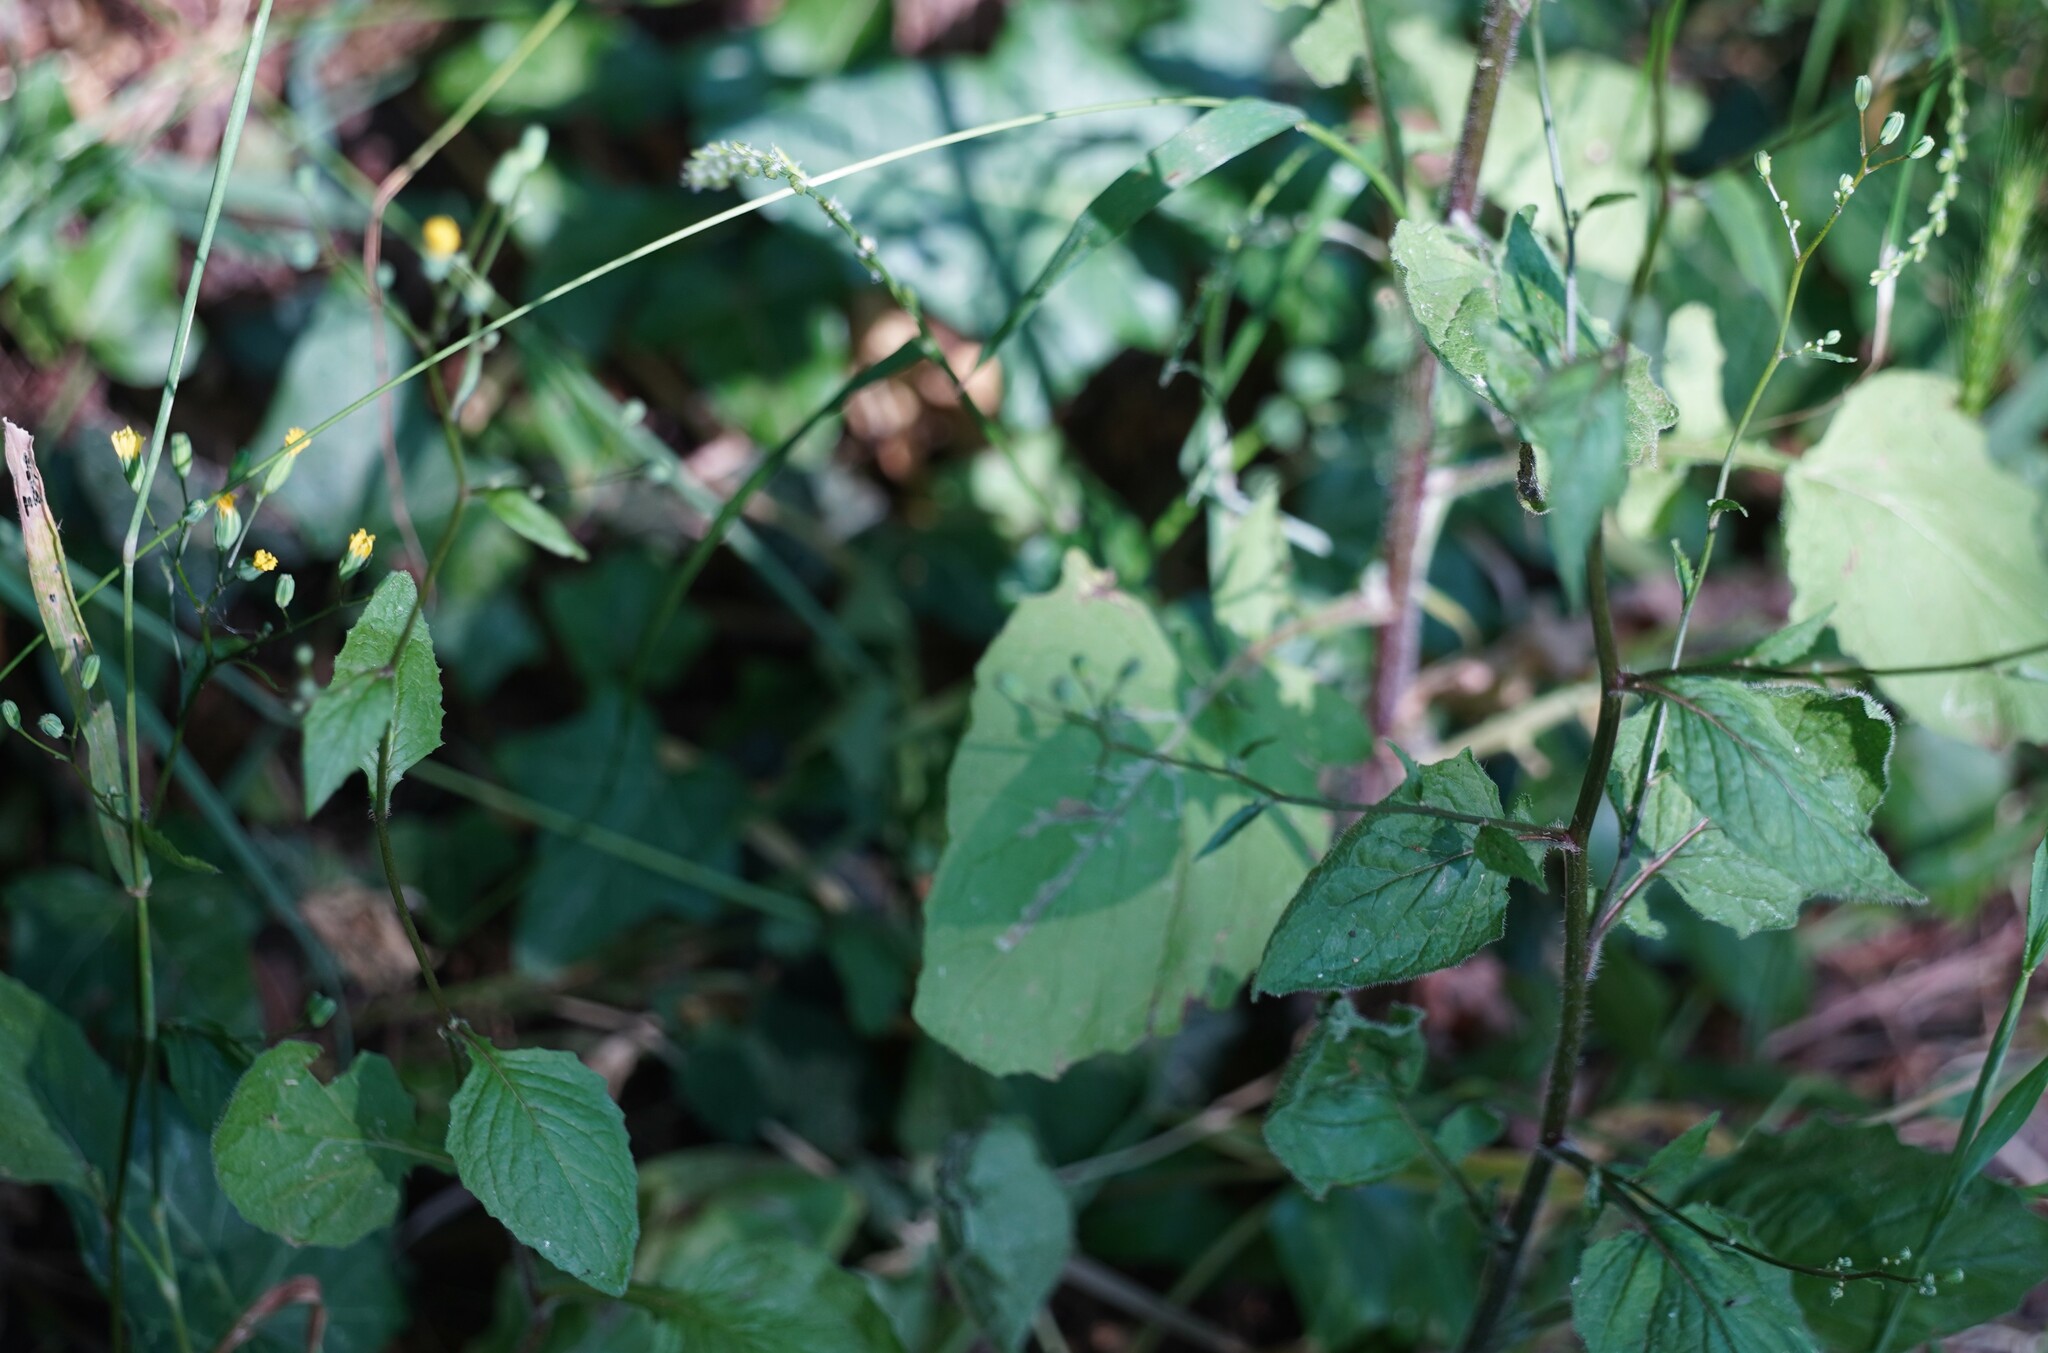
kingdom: Plantae
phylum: Tracheophyta
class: Magnoliopsida
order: Asterales
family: Asteraceae
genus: Lapsana
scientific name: Lapsana communis
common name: Nipplewort
